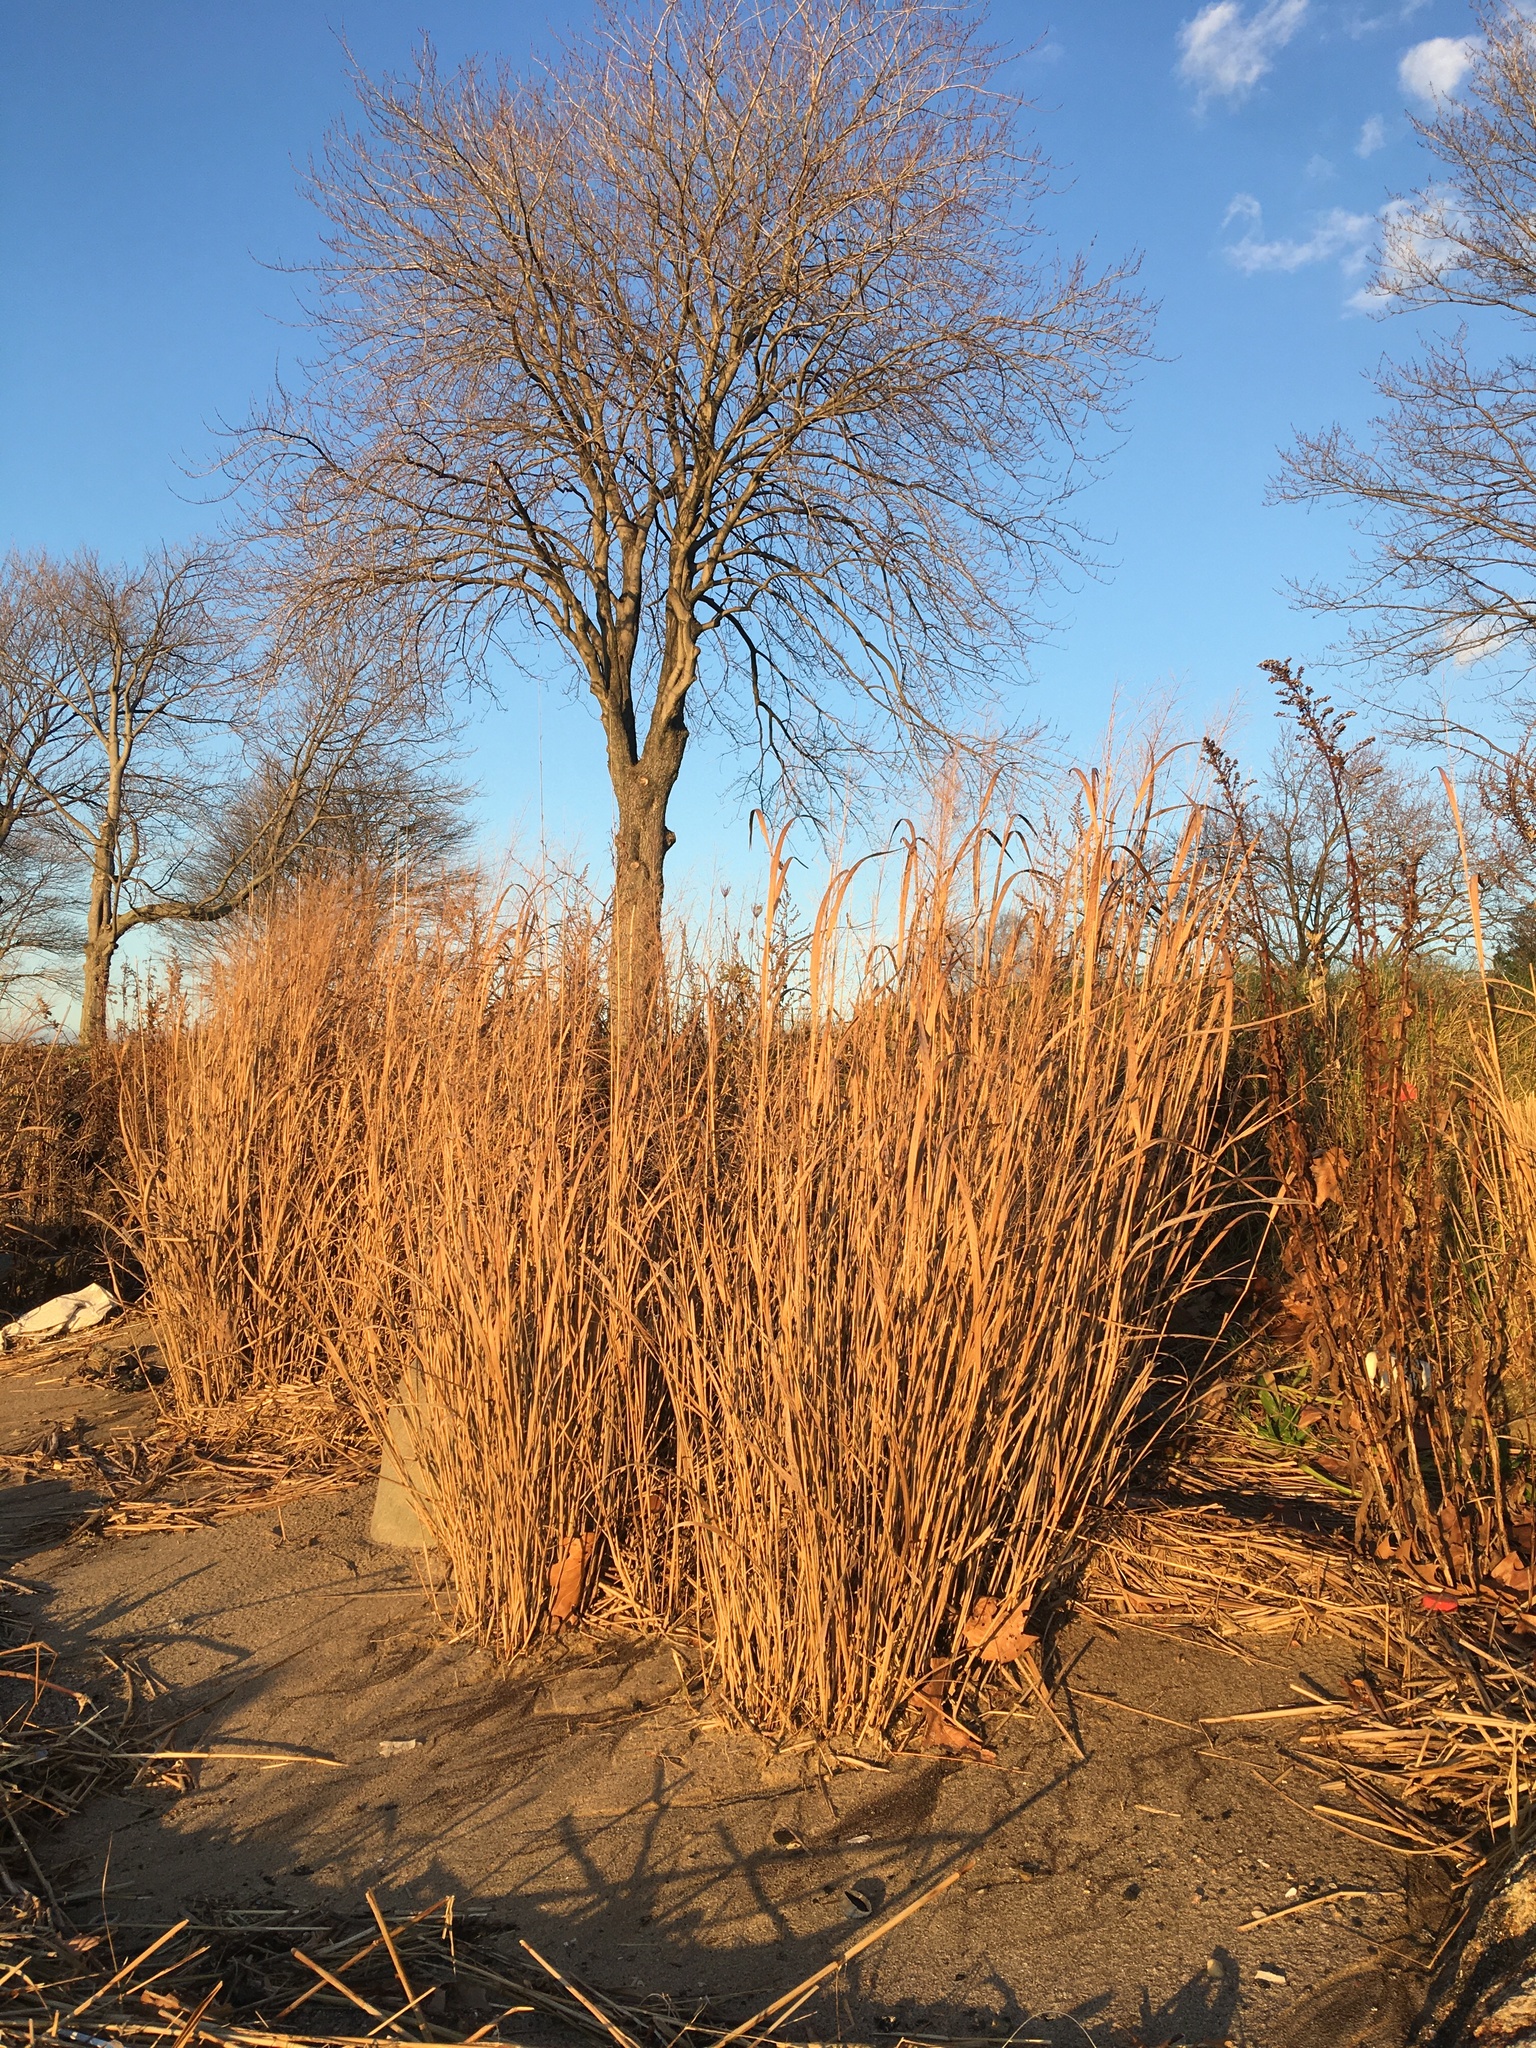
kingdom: Plantae
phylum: Tracheophyta
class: Liliopsida
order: Poales
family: Poaceae
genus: Panicum
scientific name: Panicum virgatum
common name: Switchgrass
